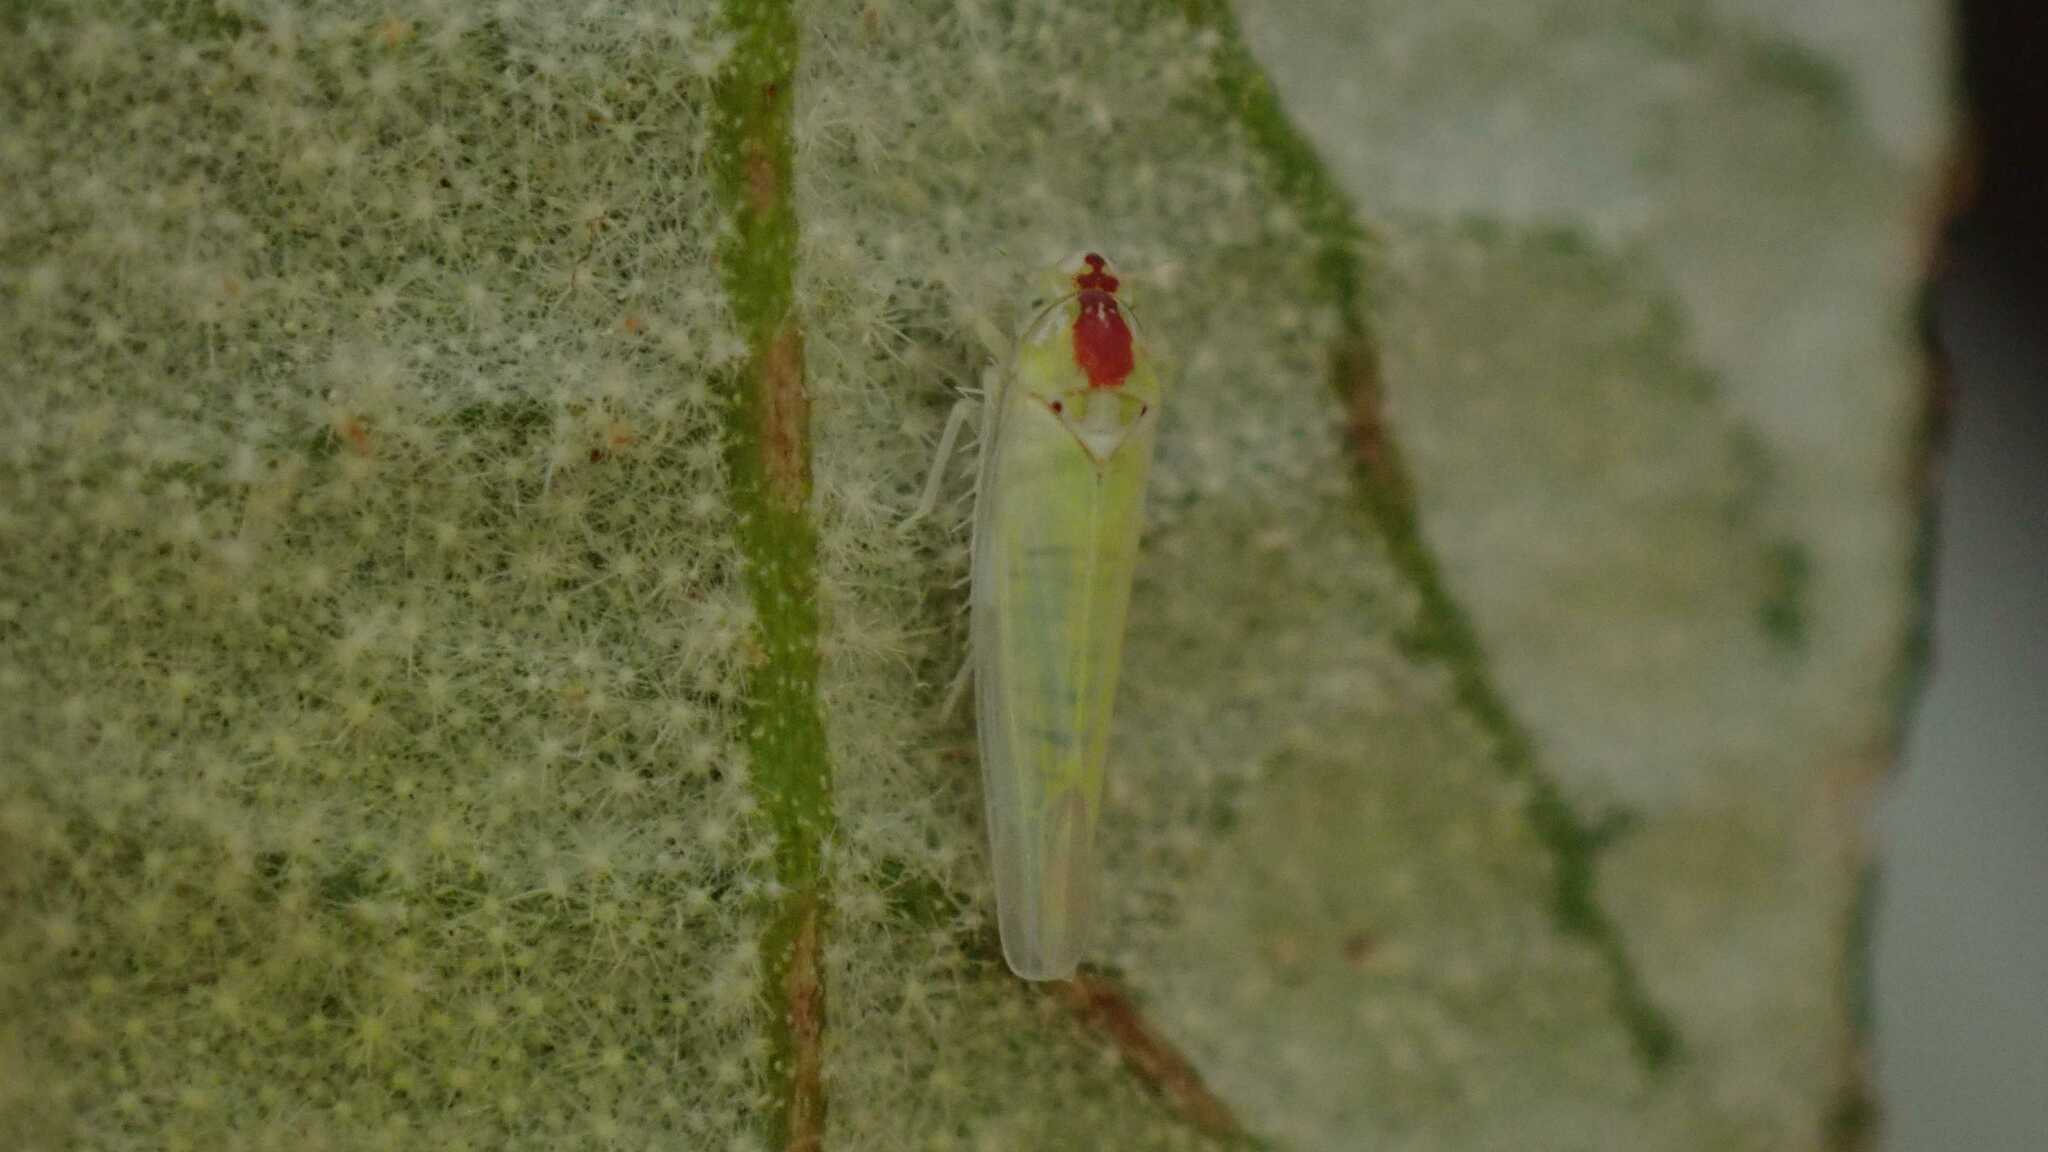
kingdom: Animalia
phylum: Arthropoda
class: Insecta
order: Hemiptera
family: Cicadellidae
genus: Zygina
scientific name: Zygina nivea
